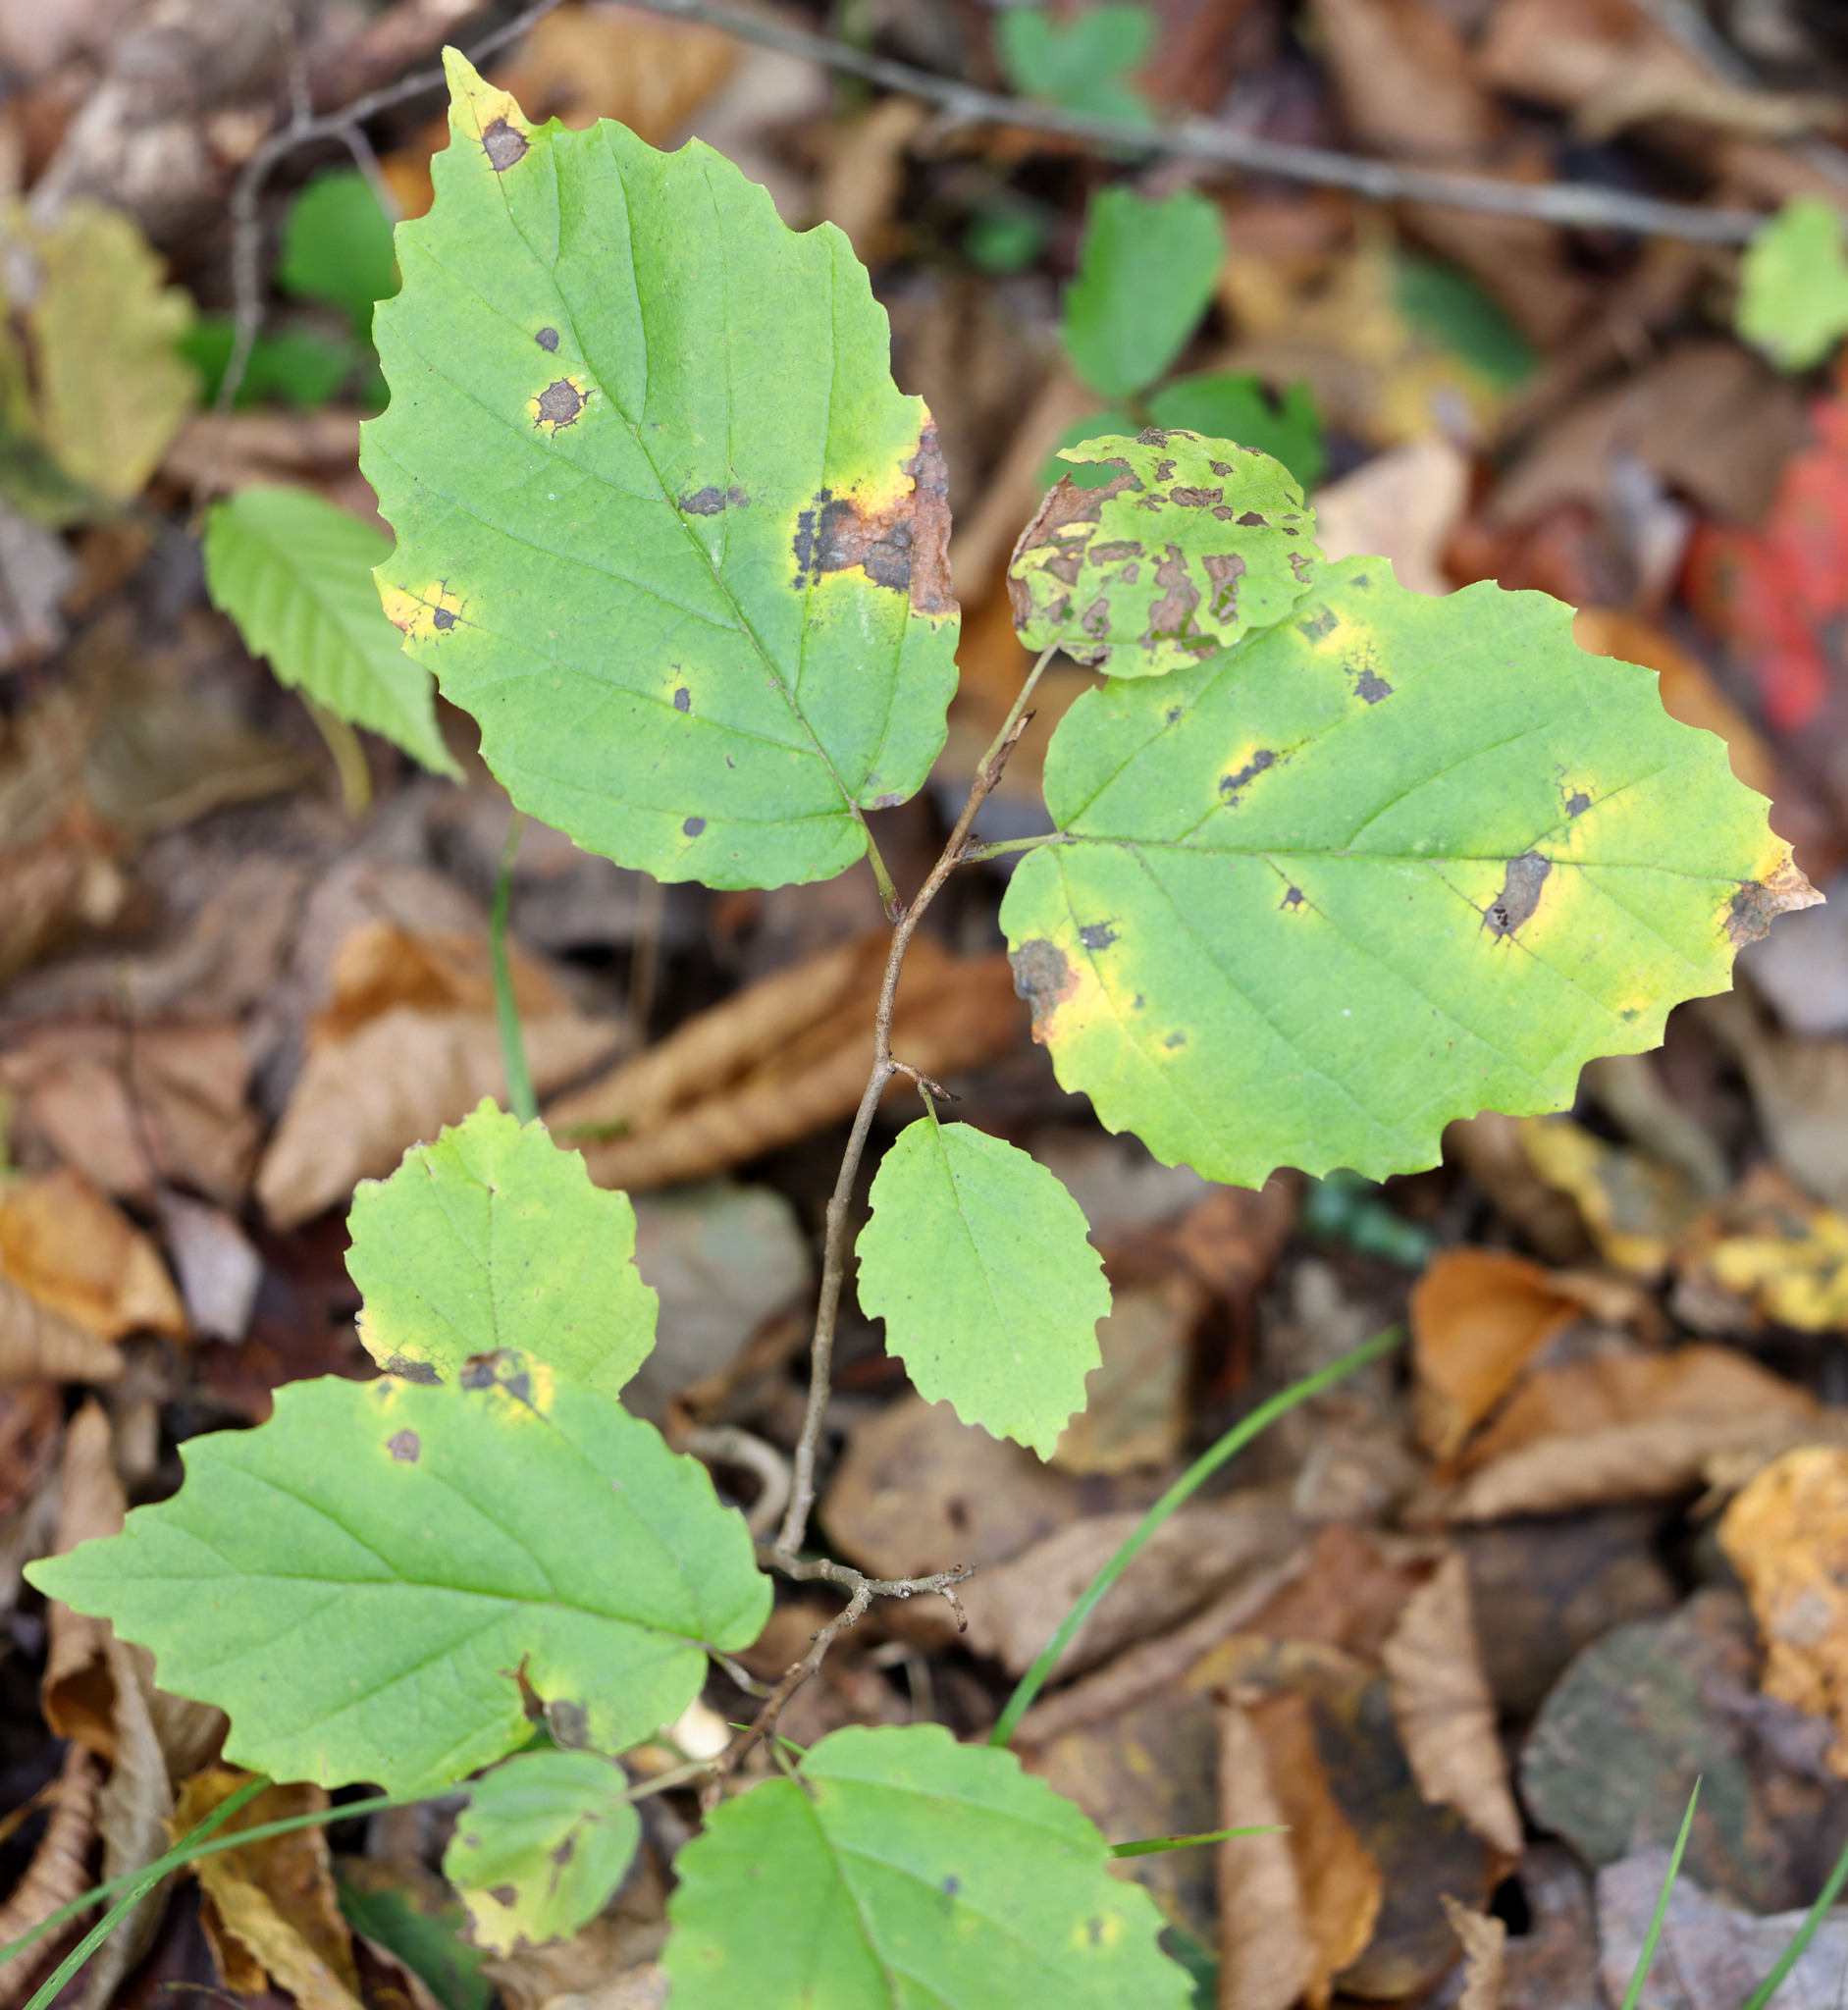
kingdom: Plantae
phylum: Tracheophyta
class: Magnoliopsida
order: Saxifragales
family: Hamamelidaceae
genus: Hamamelis
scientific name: Hamamelis virginiana
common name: Witch-hazel
